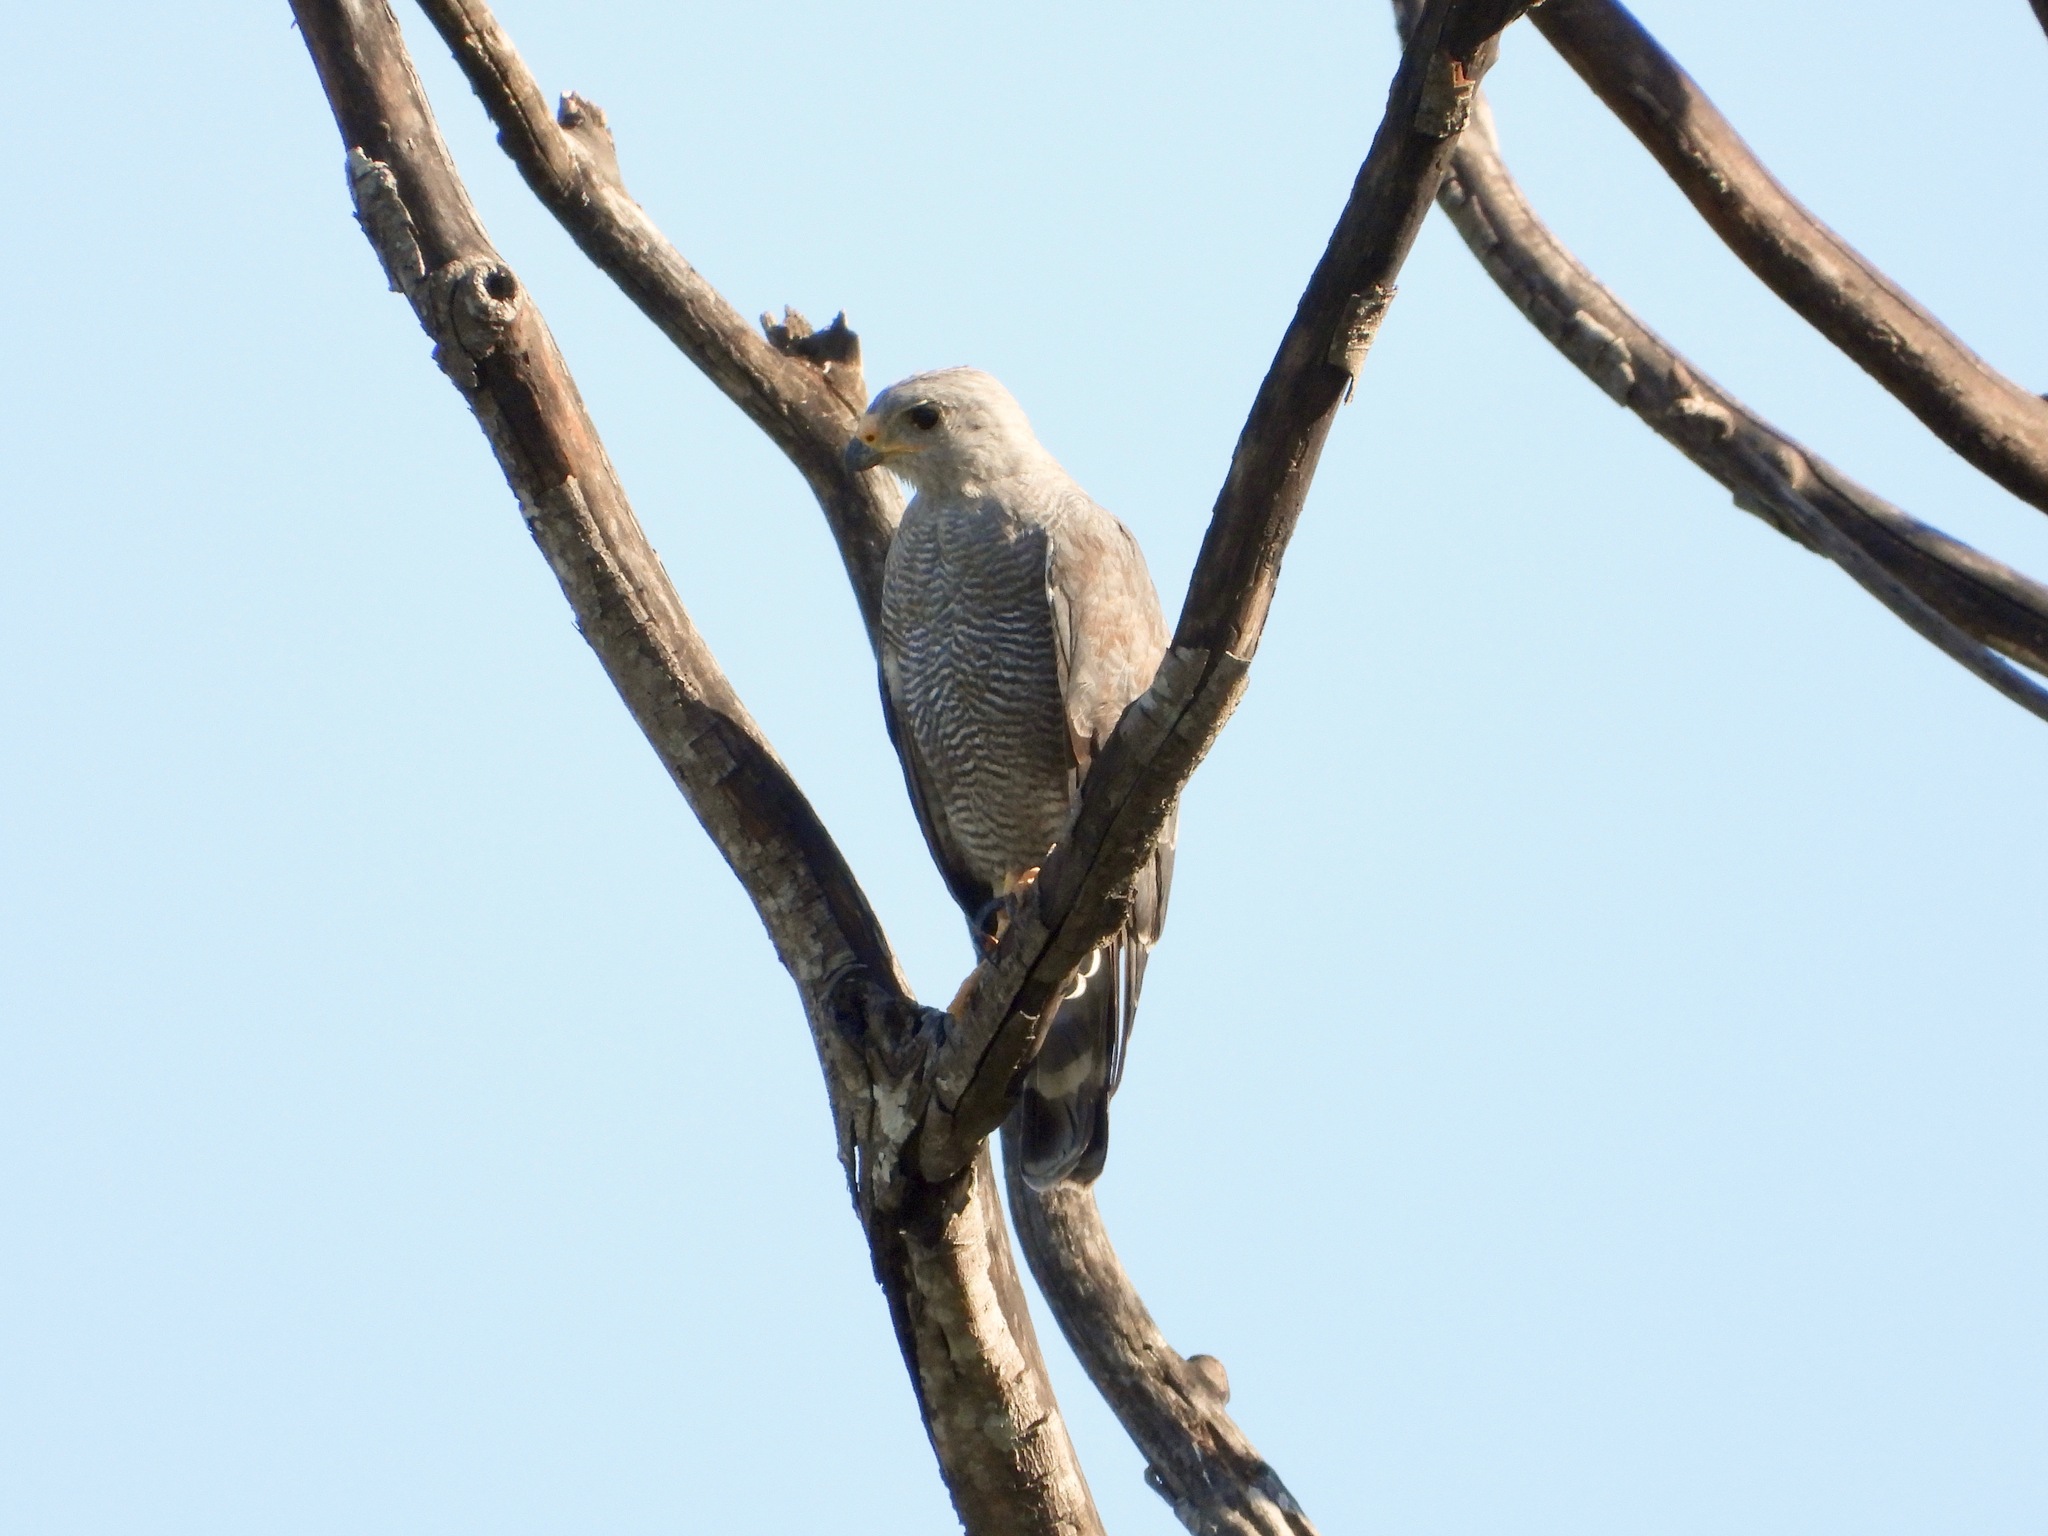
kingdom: Animalia
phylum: Chordata
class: Aves
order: Accipitriformes
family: Accipitridae
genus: Buteo
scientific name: Buteo nitidus
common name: Grey-lined hawk
